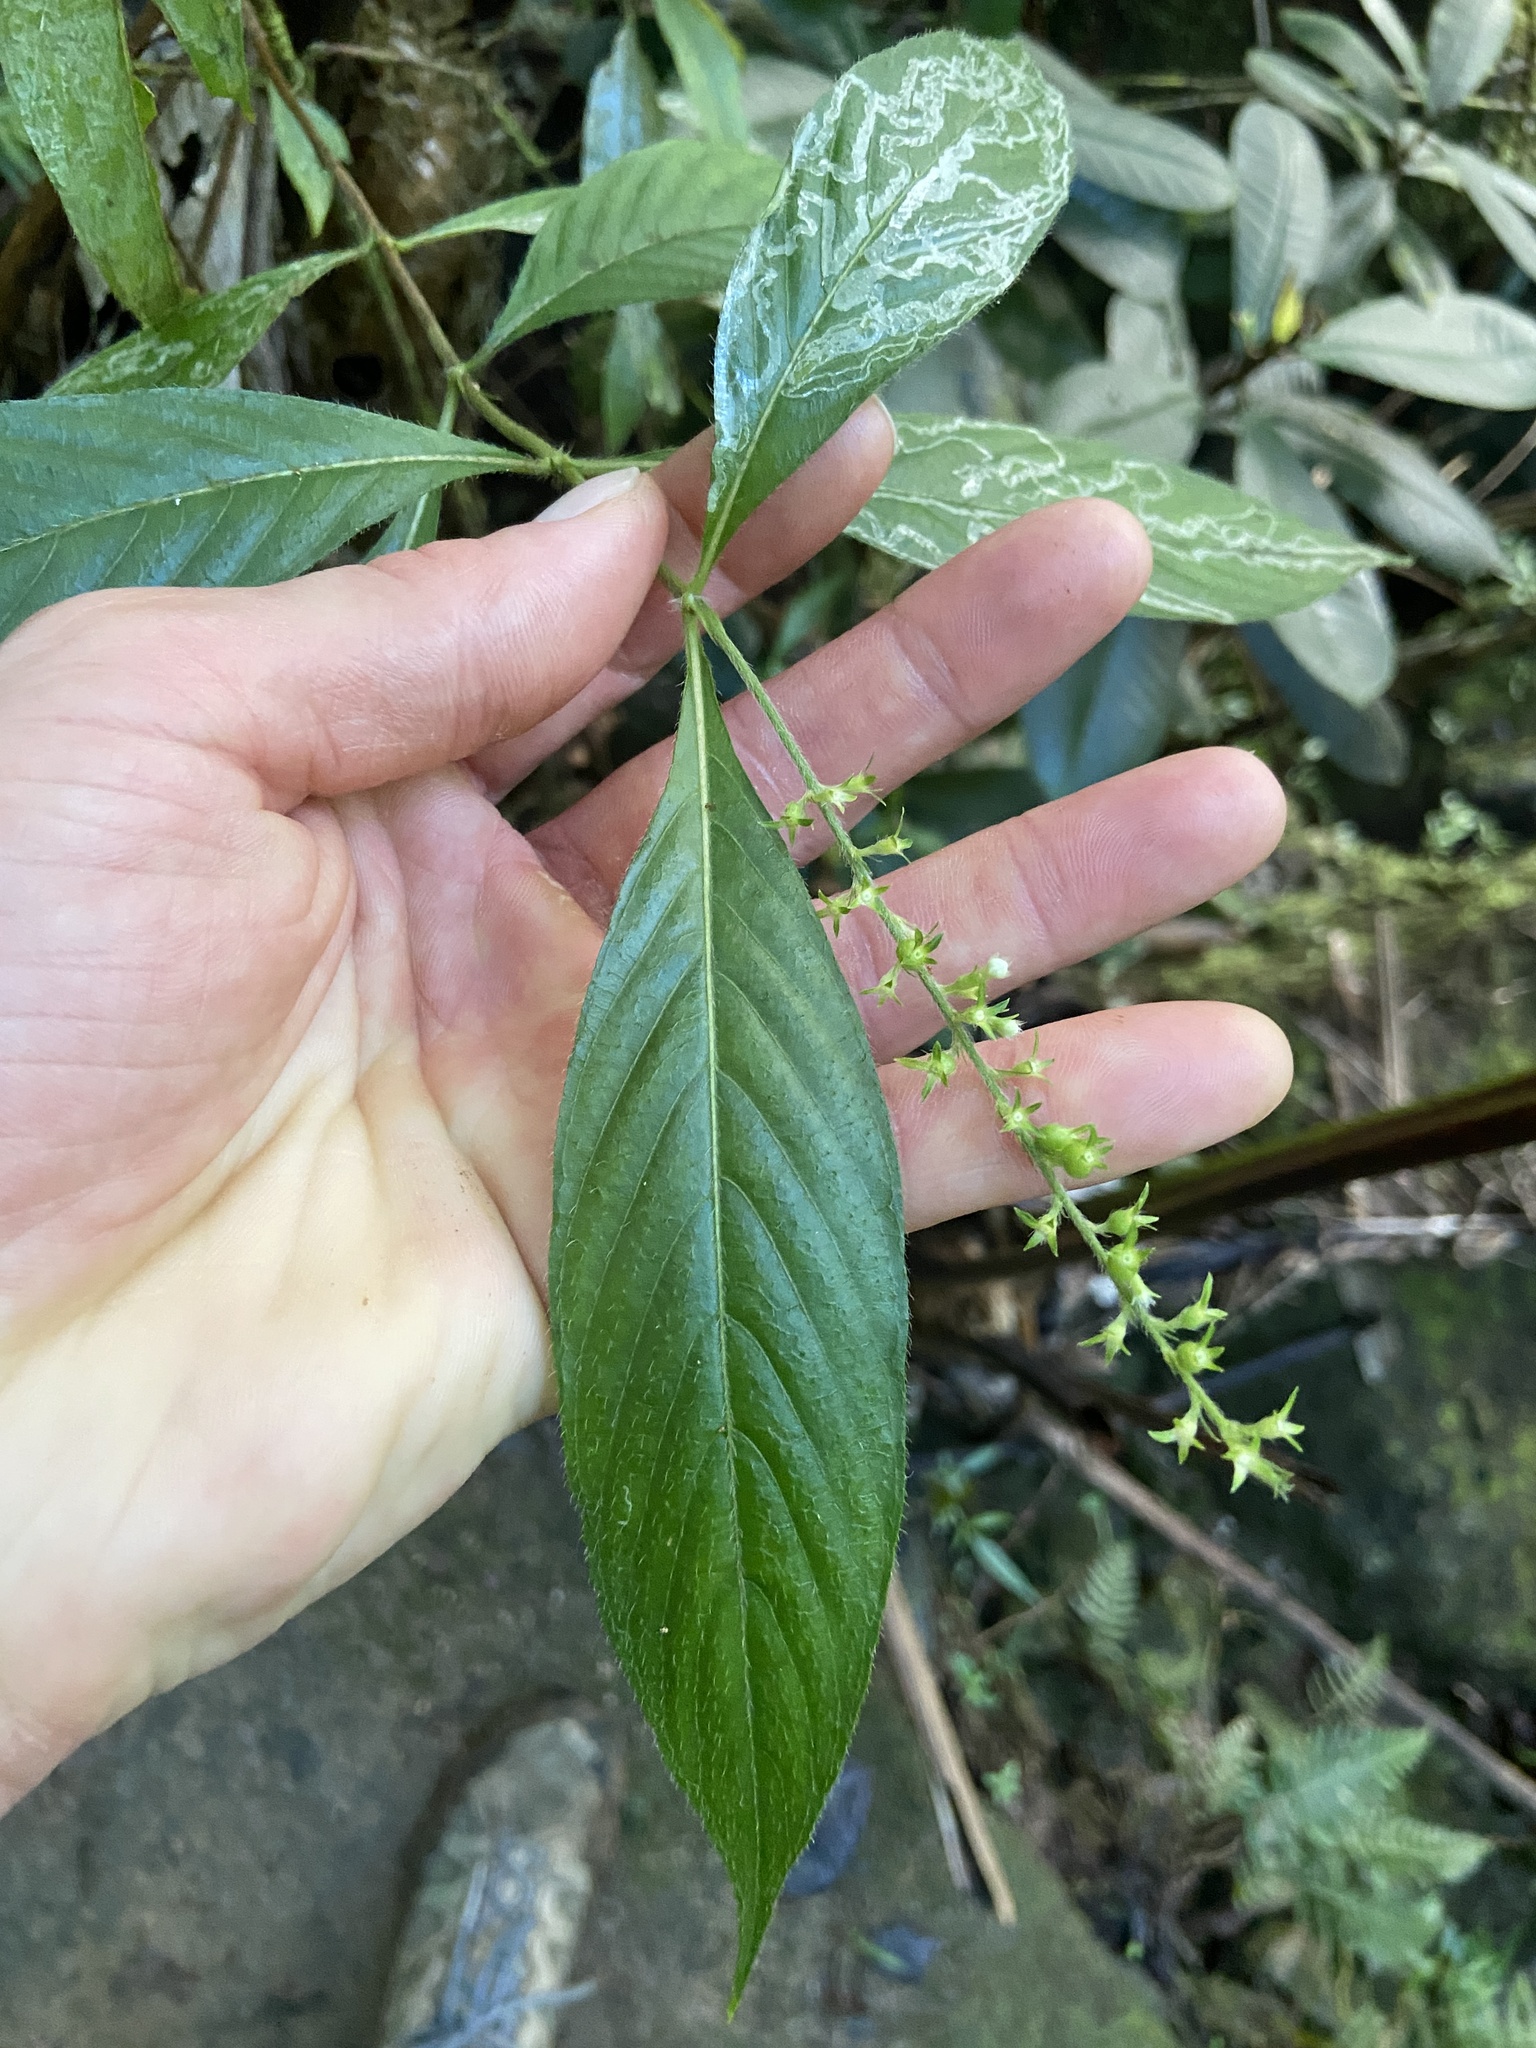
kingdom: Plantae
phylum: Tracheophyta
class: Magnoliopsida
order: Gentianales
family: Rubiaceae
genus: Gonzalagunia
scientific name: Gonzalagunia hirsuta
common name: Mata de mariposa
